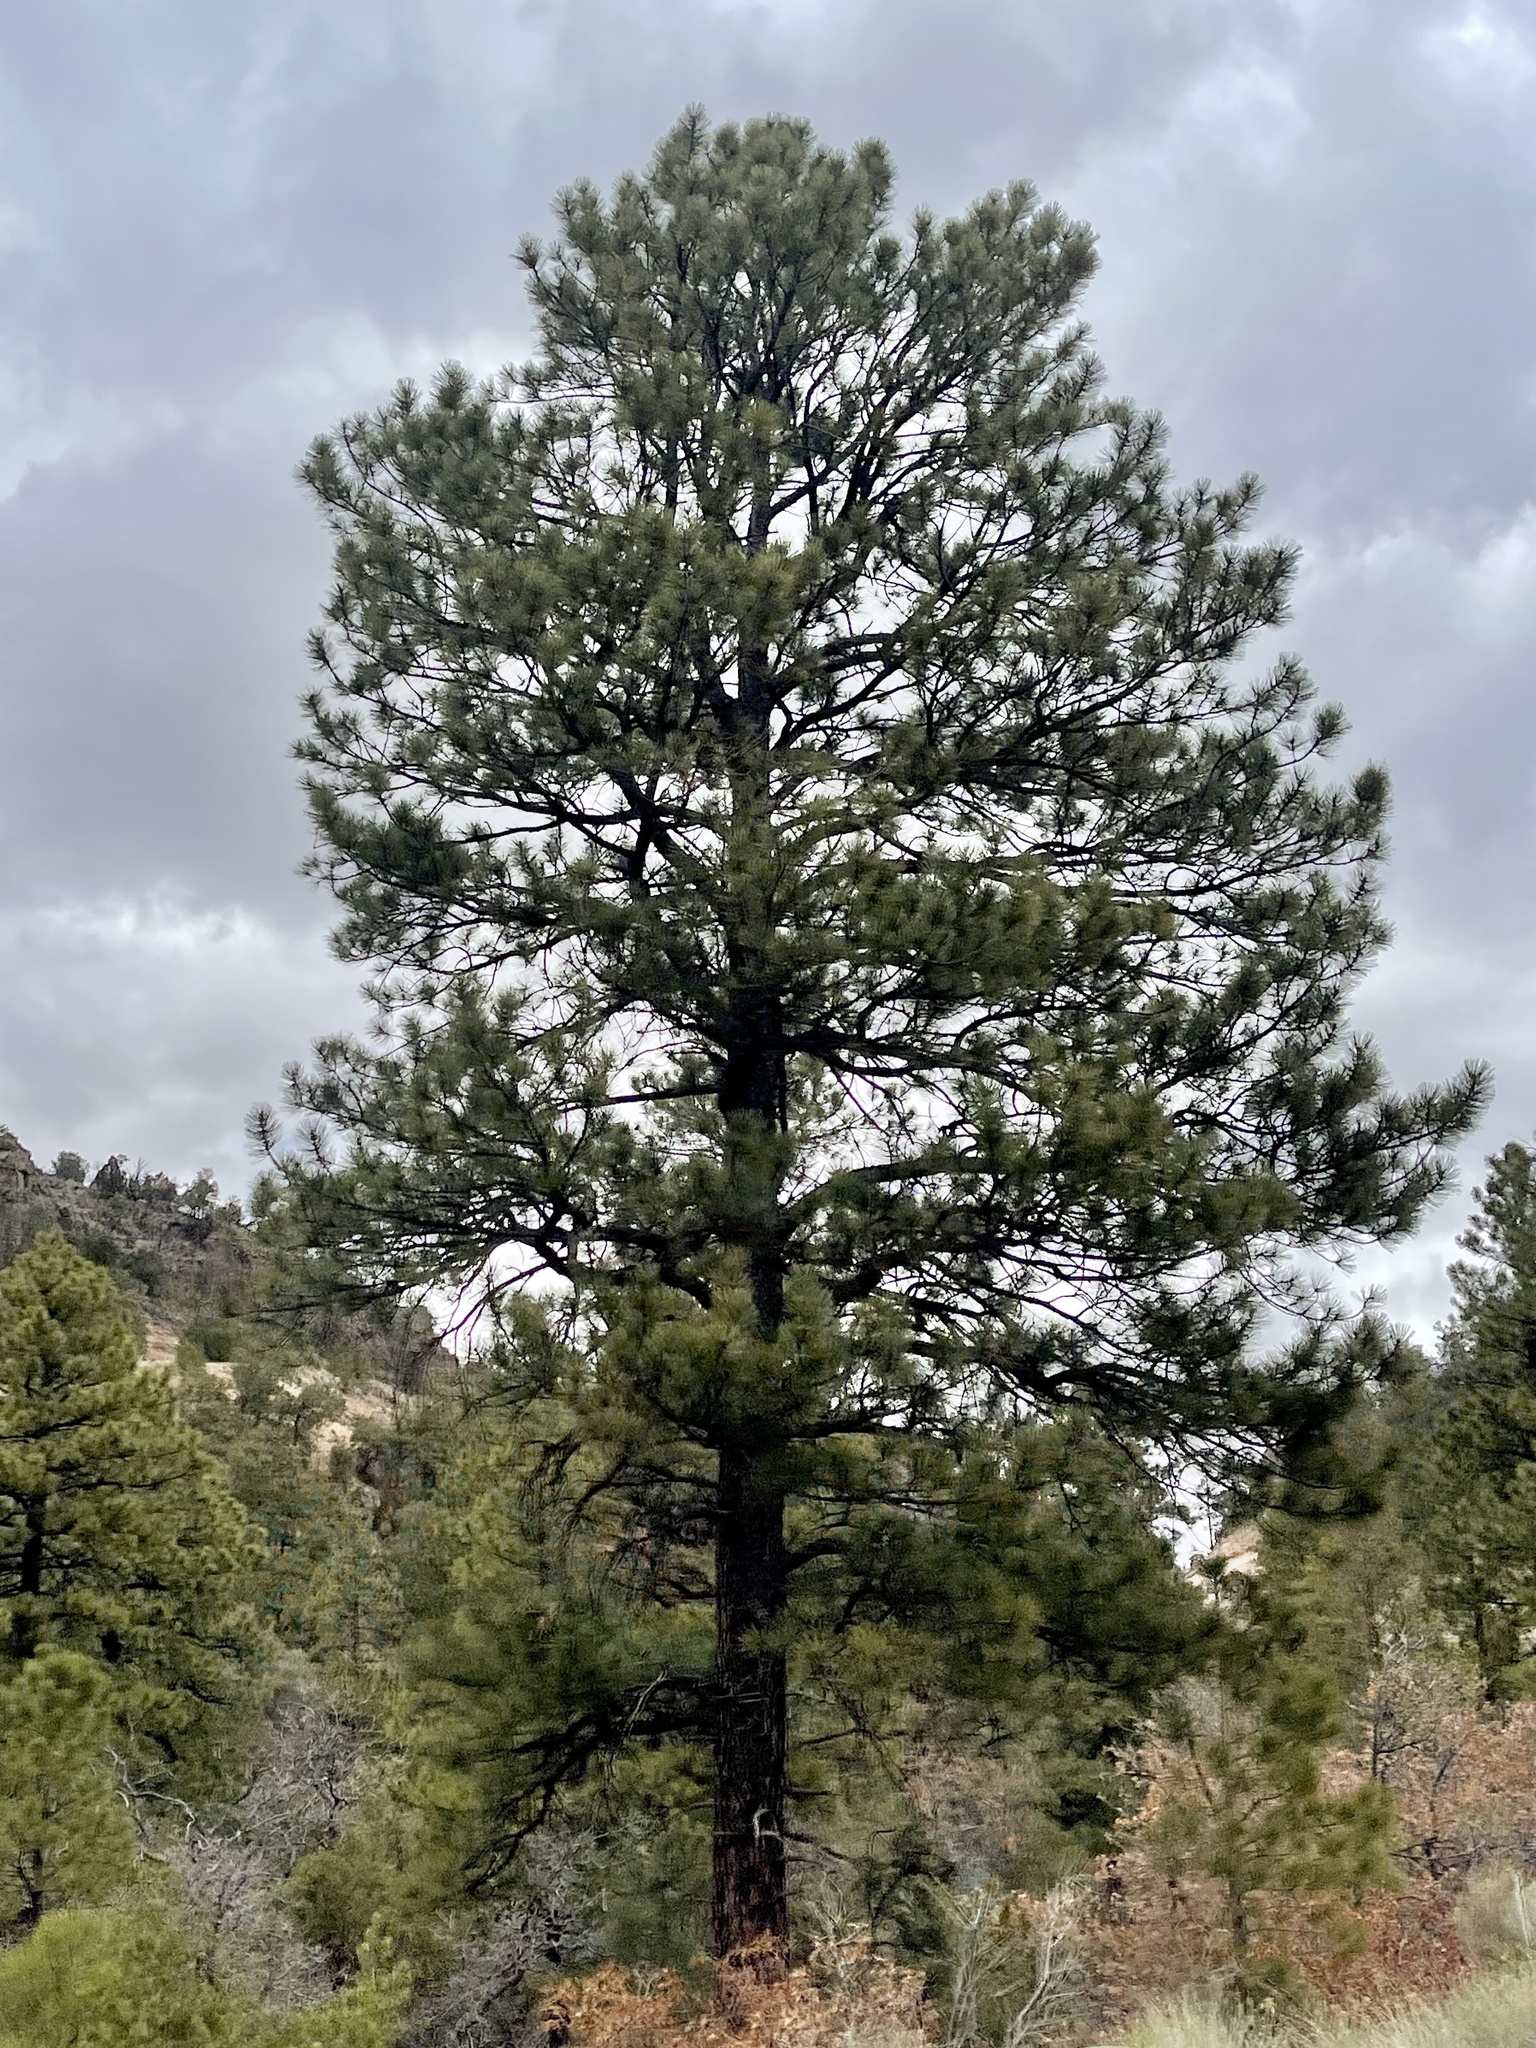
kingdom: Plantae
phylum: Tracheophyta
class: Pinopsida
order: Pinales
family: Pinaceae
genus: Pinus
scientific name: Pinus ponderosa
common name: Western yellow-pine
